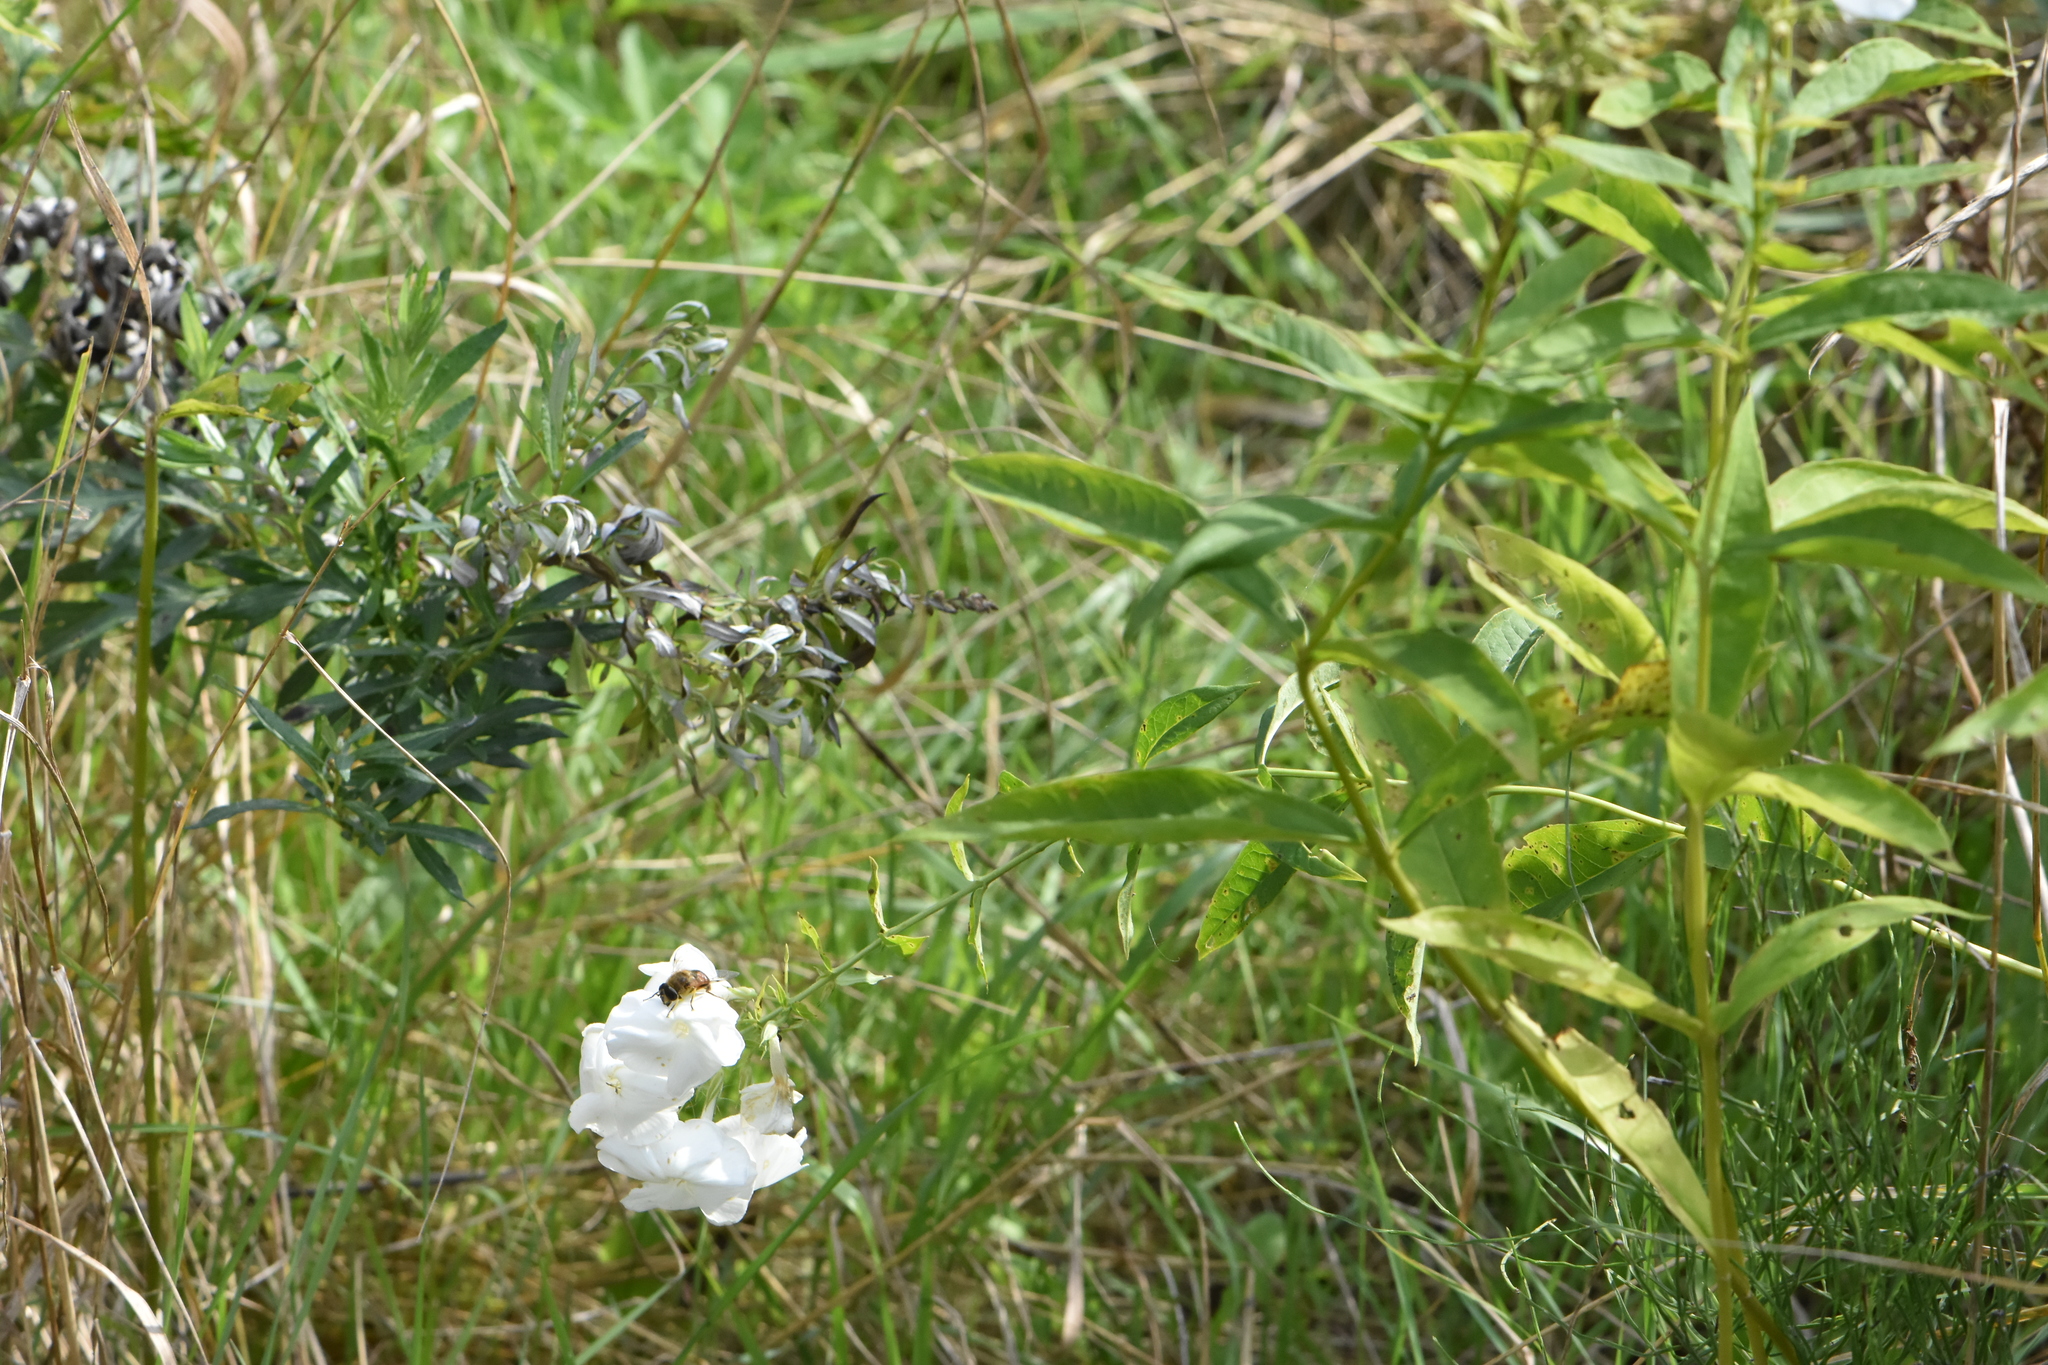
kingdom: Plantae
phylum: Tracheophyta
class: Magnoliopsida
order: Ericales
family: Polemoniaceae
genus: Phlox
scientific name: Phlox paniculata
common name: Fall phlox
